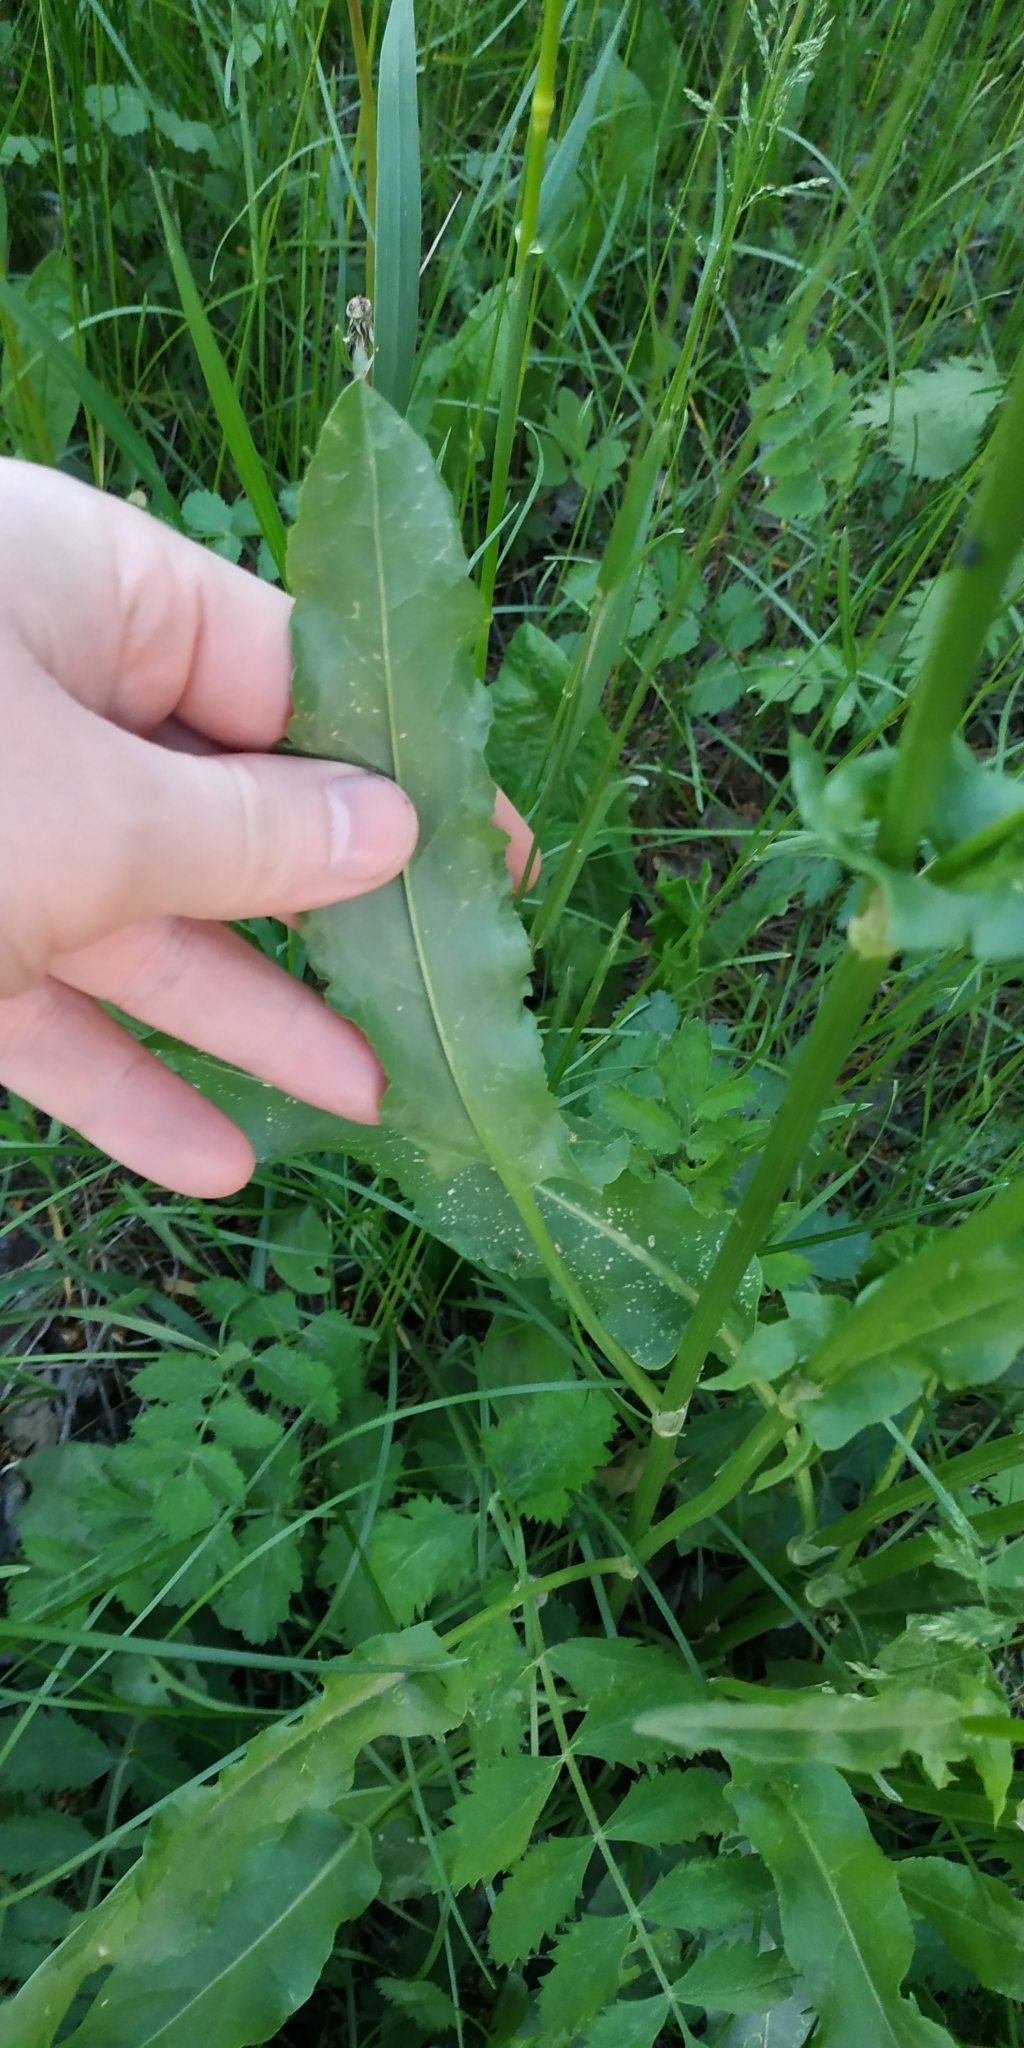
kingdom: Plantae
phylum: Tracheophyta
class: Magnoliopsida
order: Caryophyllales
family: Polygonaceae
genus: Rumex
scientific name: Rumex thyrsiflorus
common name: Garden sorrel
